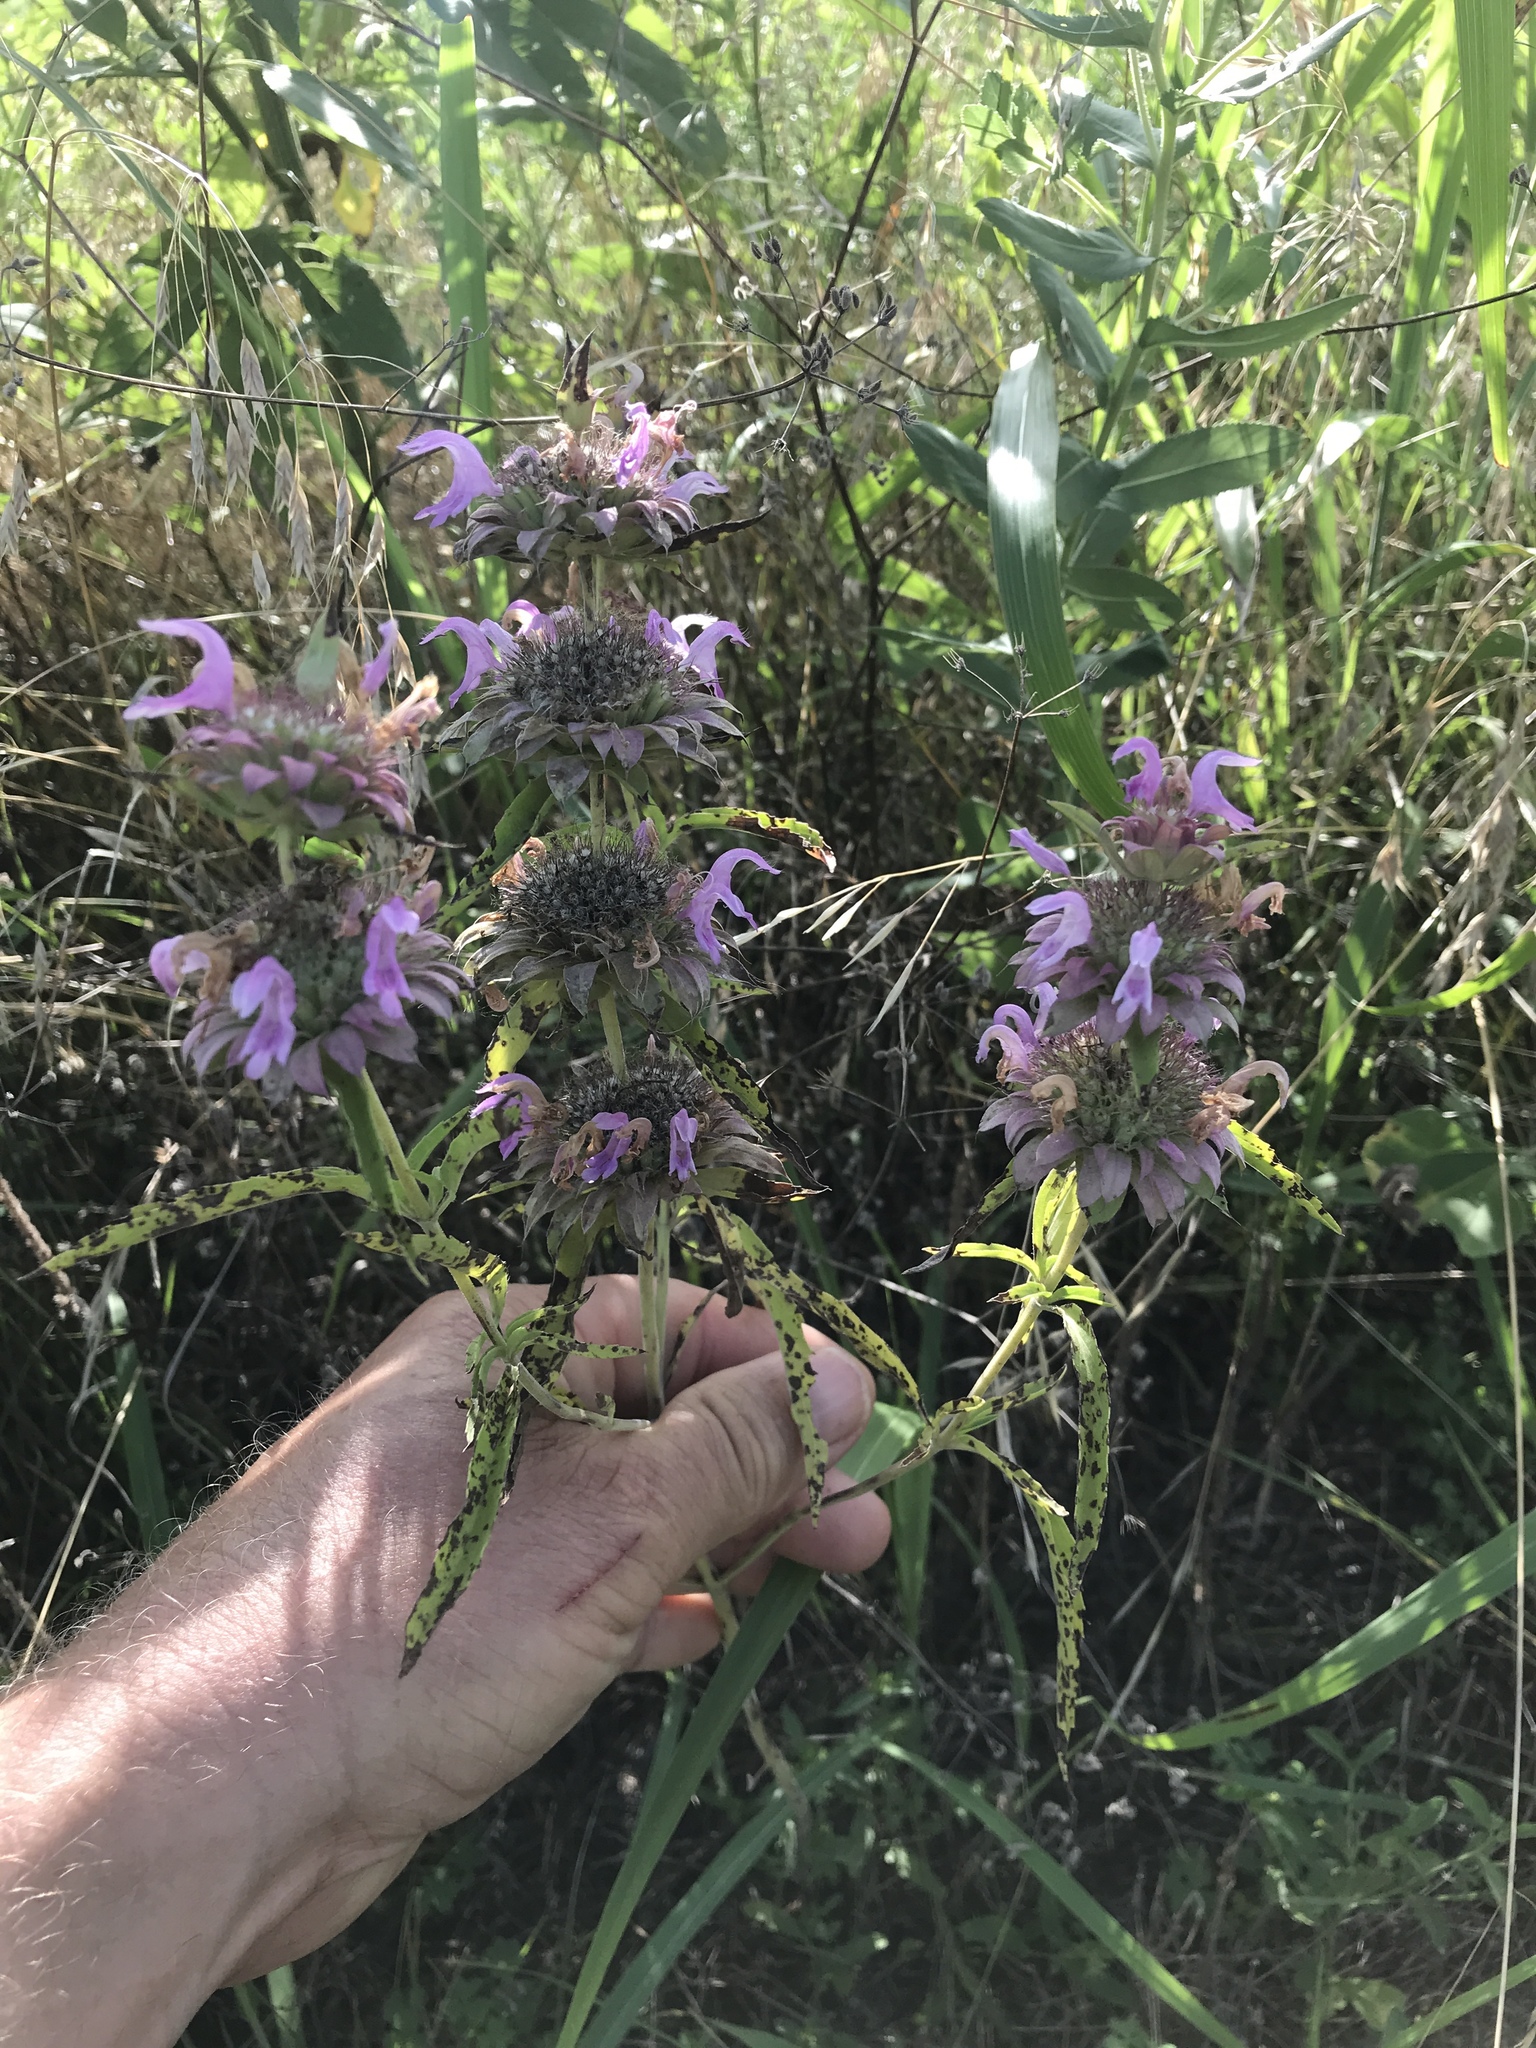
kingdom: Plantae
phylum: Tracheophyta
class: Magnoliopsida
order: Lamiales
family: Lamiaceae
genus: Monarda
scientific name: Monarda citriodora
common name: Lemon beebalm
